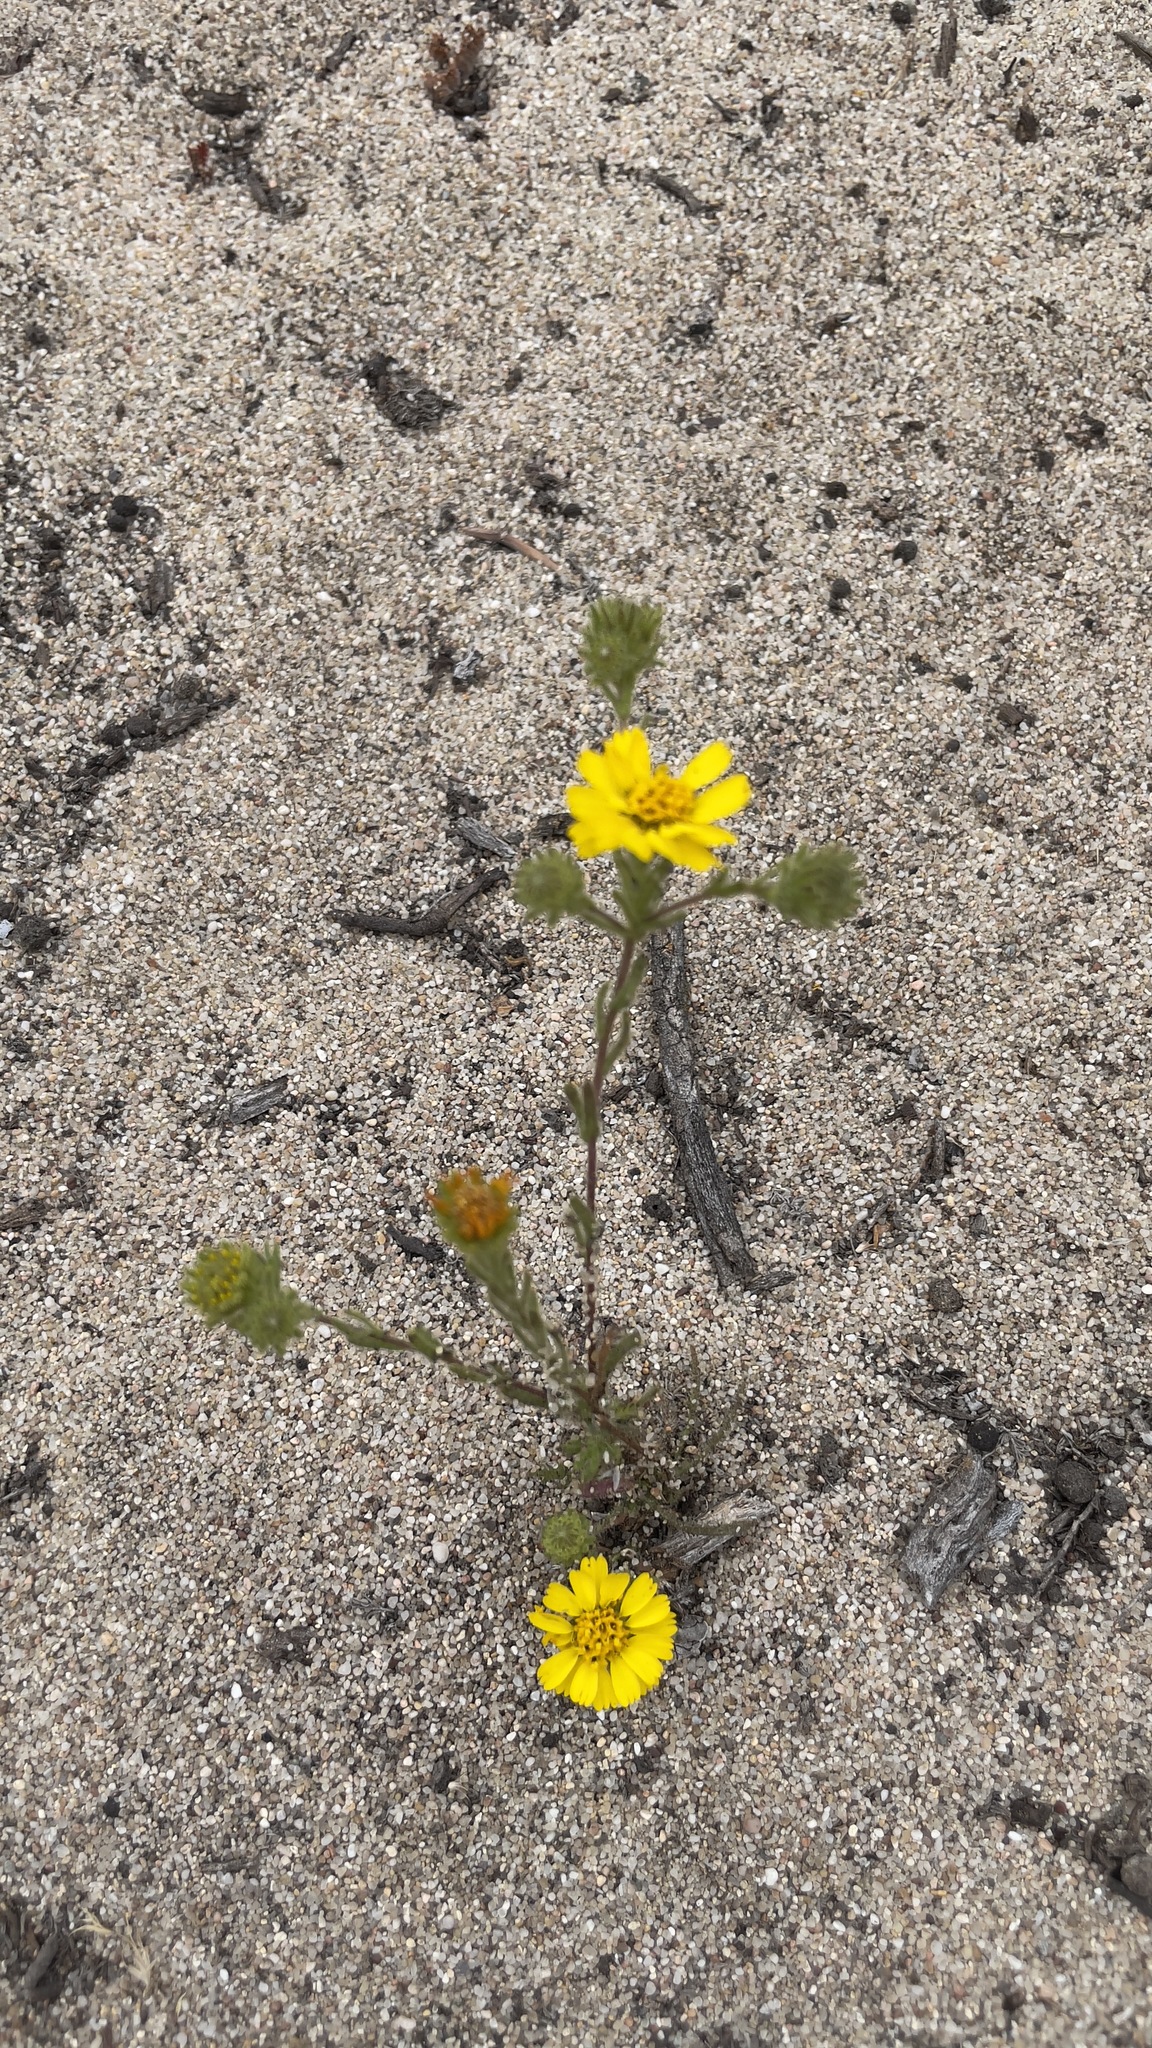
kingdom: Plantae
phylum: Tracheophyta
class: Magnoliopsida
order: Asterales
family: Asteraceae
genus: Deinandra
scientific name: Deinandra corymbosa
